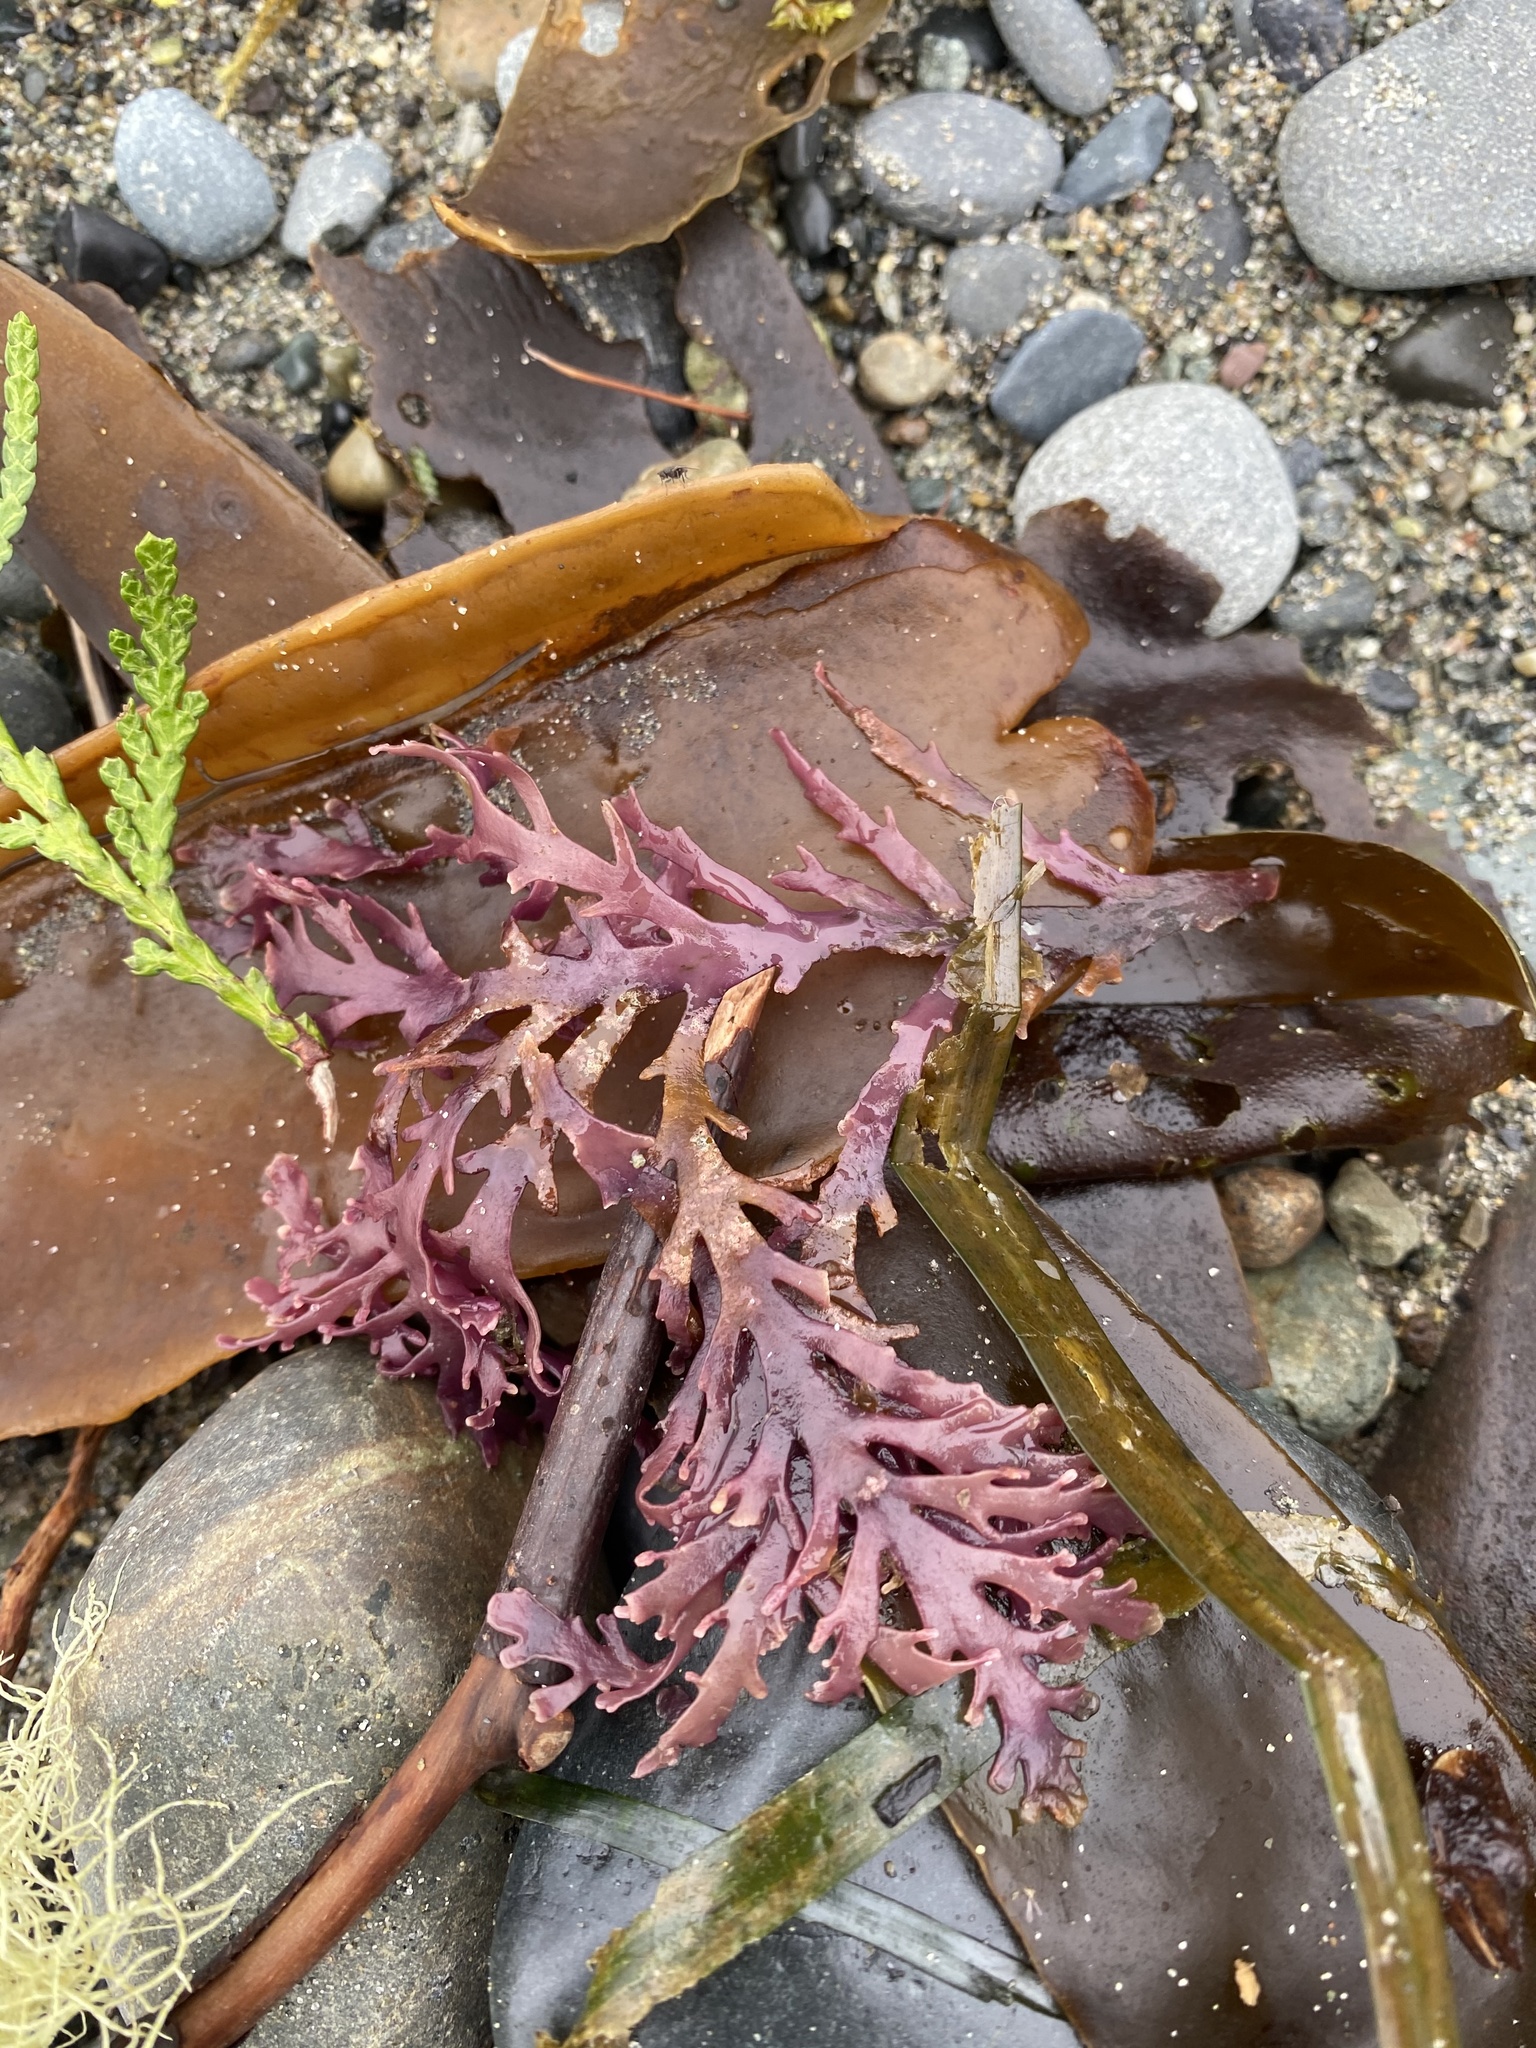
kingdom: Plantae
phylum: Rhodophyta
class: Florideophyceae
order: Ceramiales
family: Rhodomelaceae
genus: Osmundea
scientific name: Osmundea spectabilis
